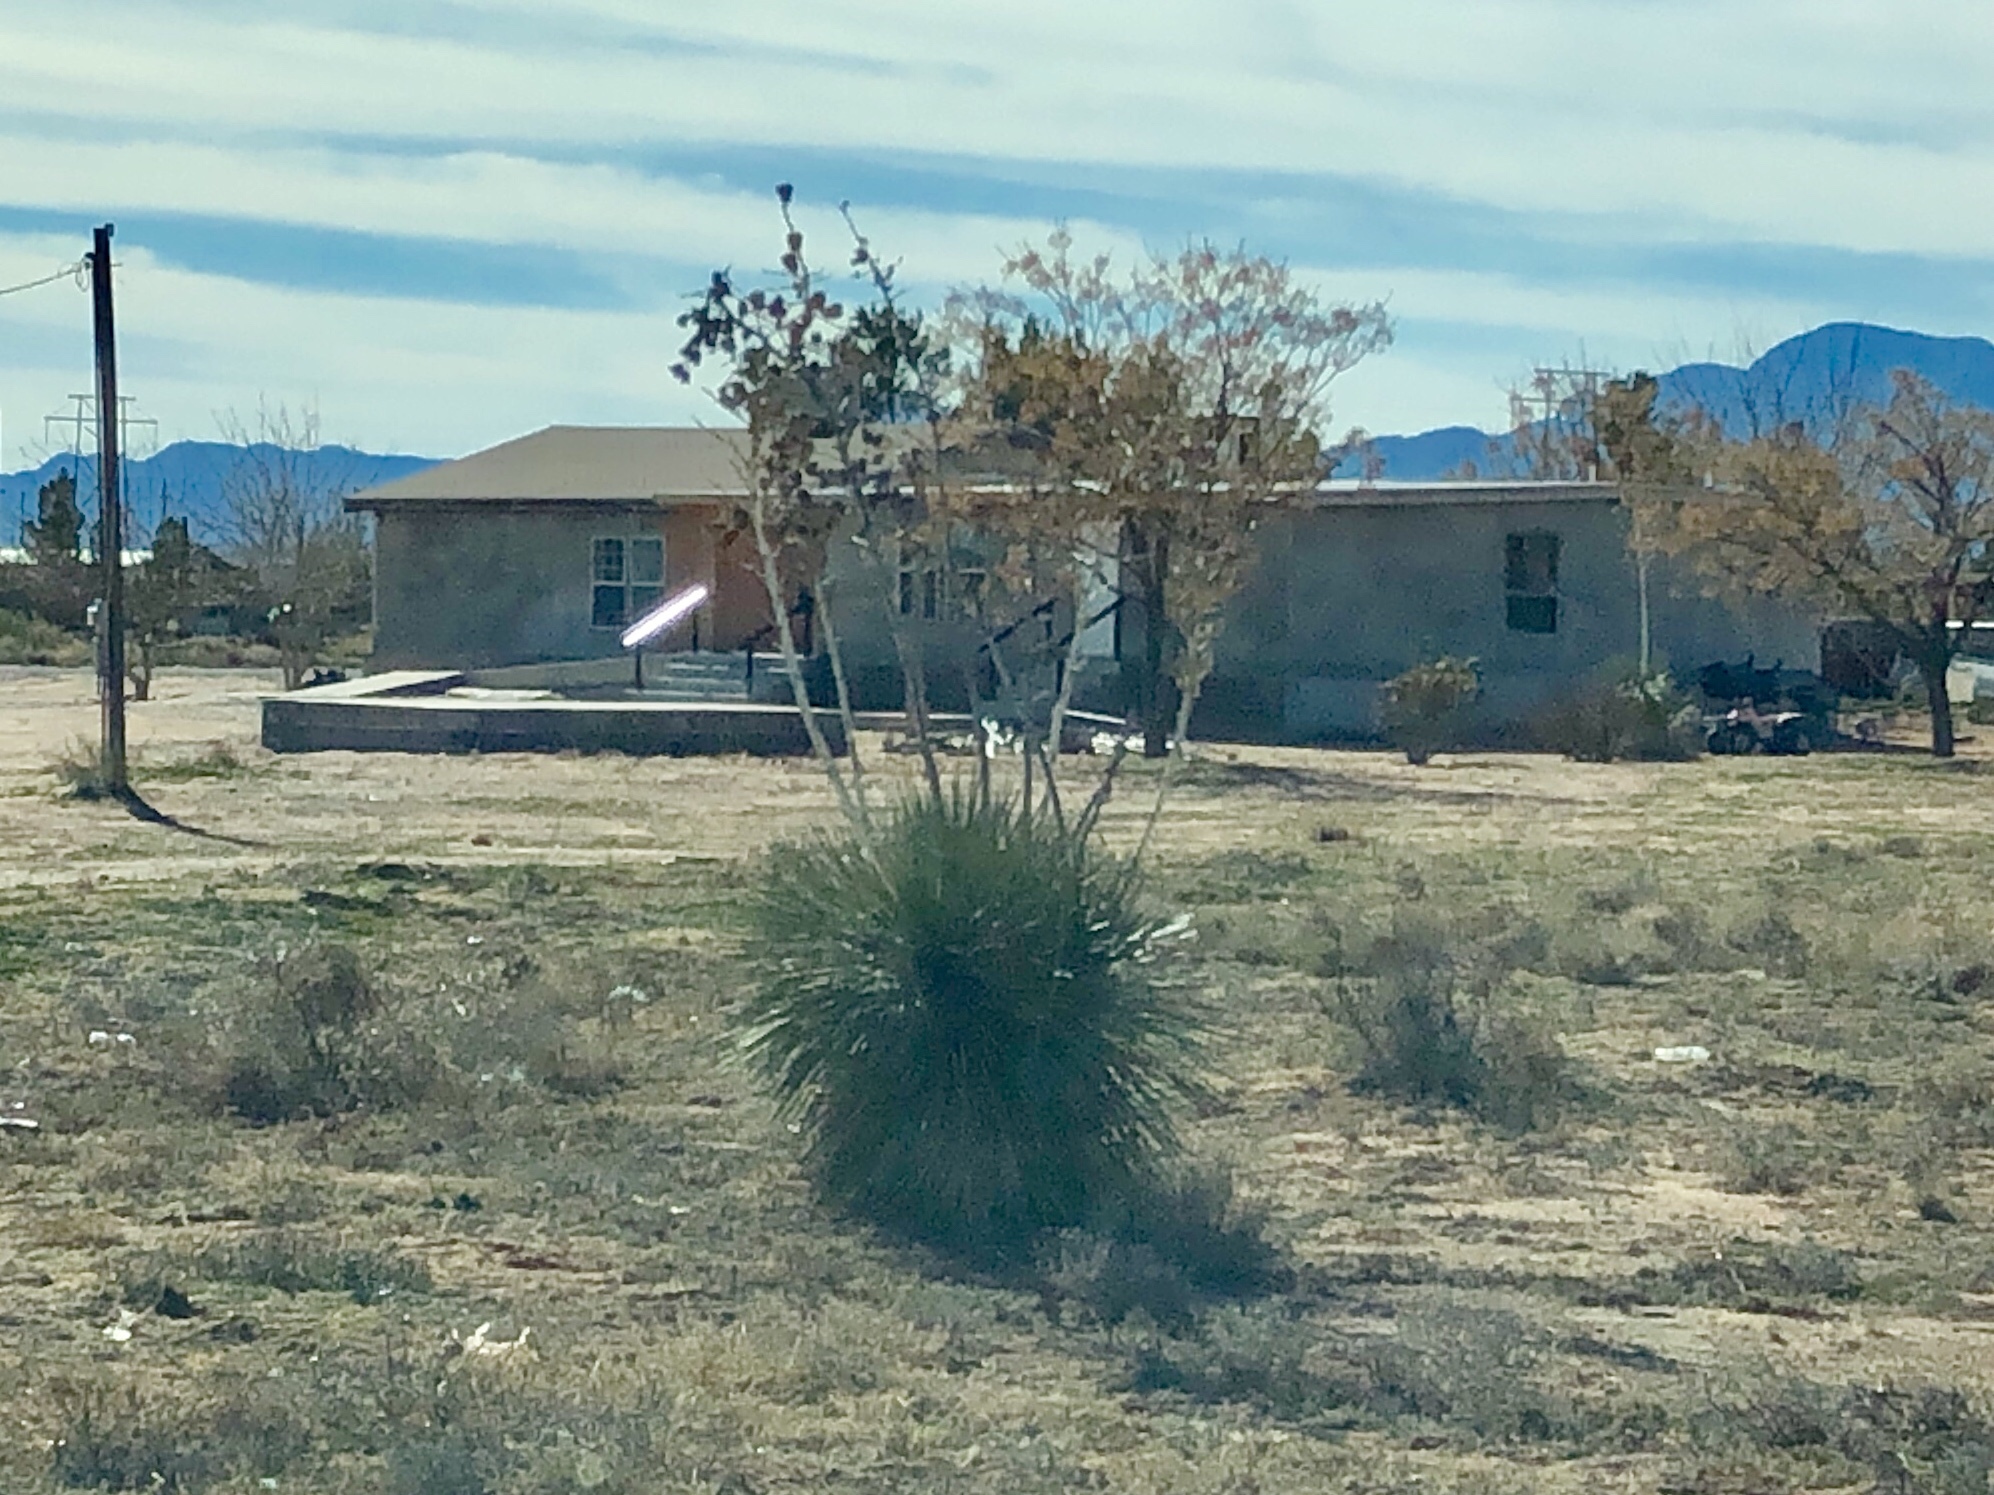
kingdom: Plantae
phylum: Tracheophyta
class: Liliopsida
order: Asparagales
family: Asparagaceae
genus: Yucca
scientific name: Yucca elata
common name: Palmella
